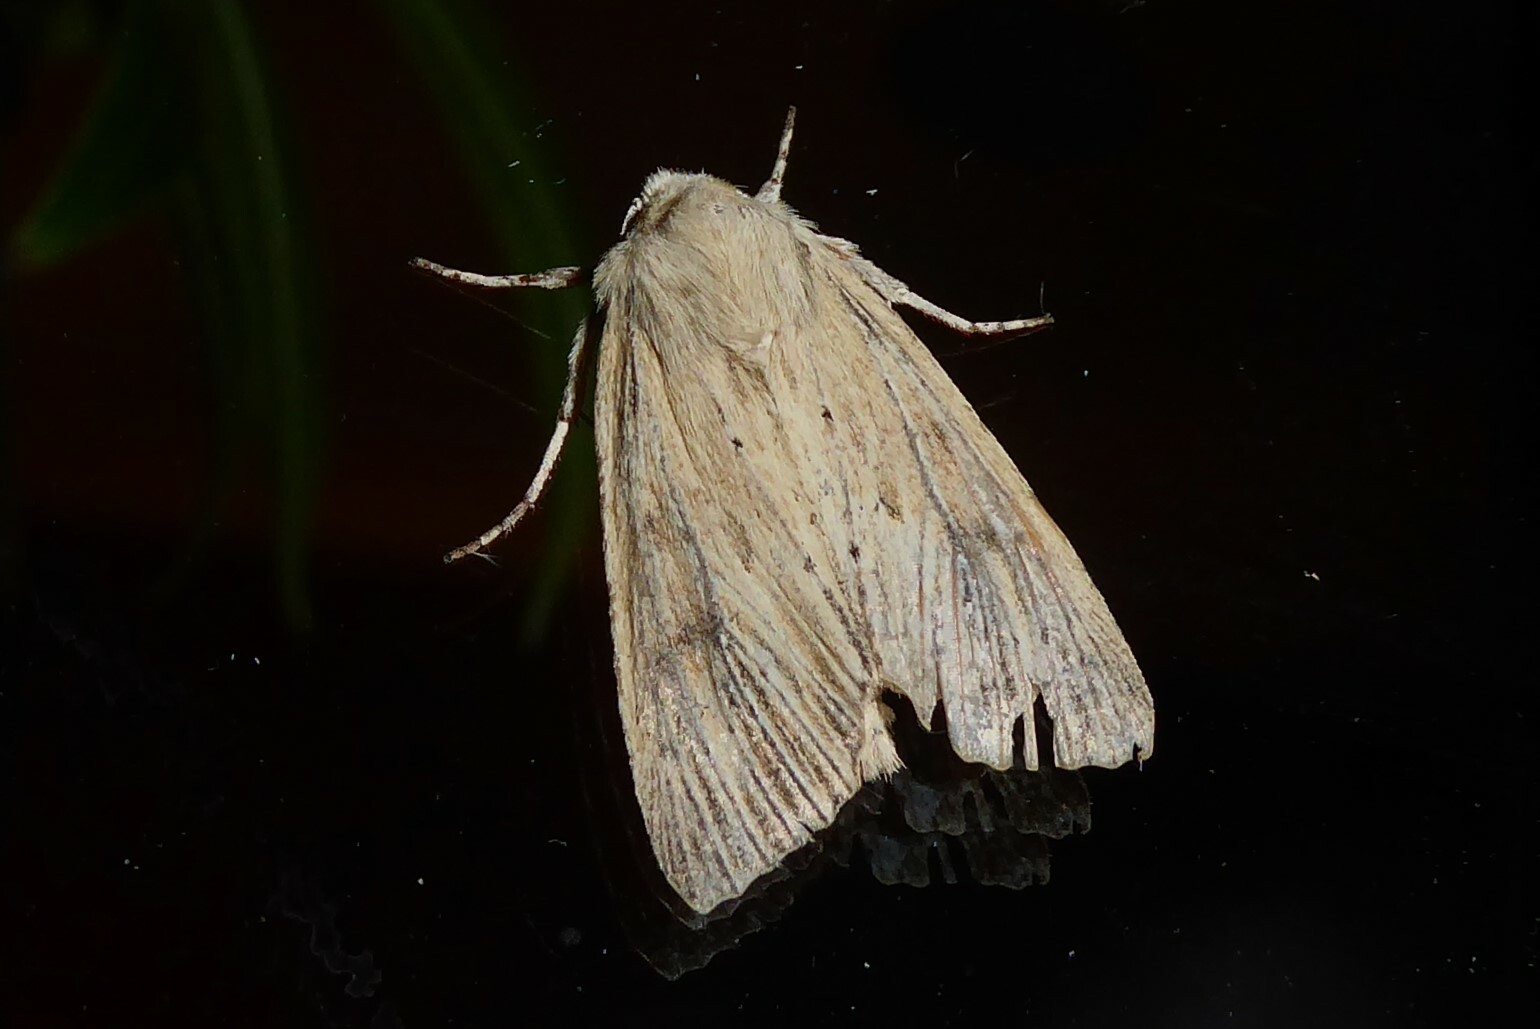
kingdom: Animalia
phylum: Arthropoda
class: Insecta
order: Lepidoptera
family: Noctuidae
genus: Ichneutica
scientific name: Ichneutica arotis
